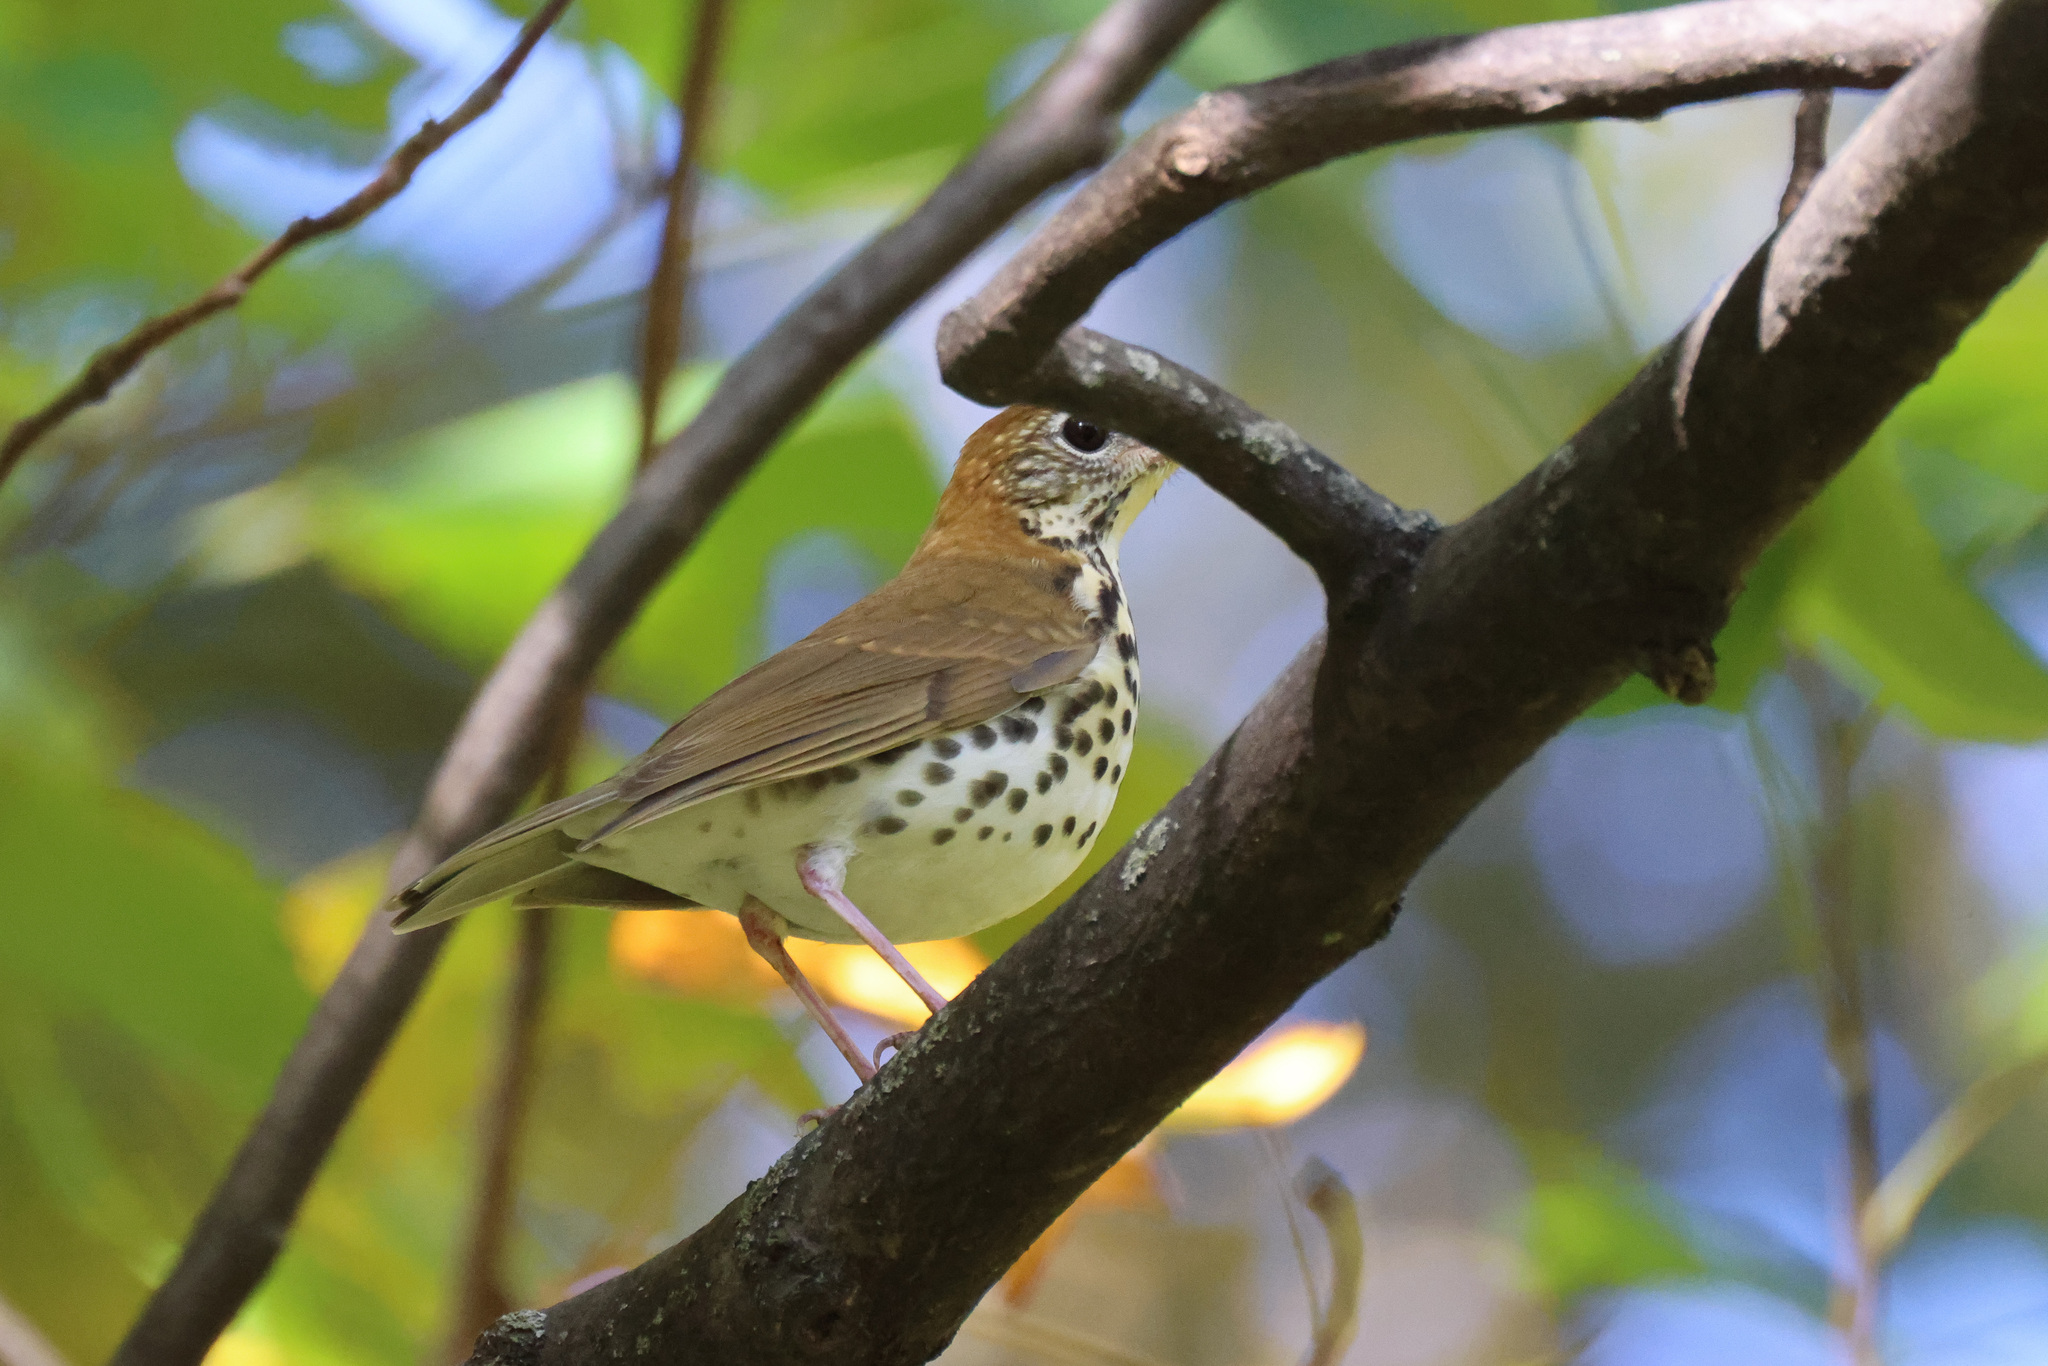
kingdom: Animalia
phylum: Chordata
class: Aves
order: Passeriformes
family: Turdidae
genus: Hylocichla
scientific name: Hylocichla mustelina
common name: Wood thrush
